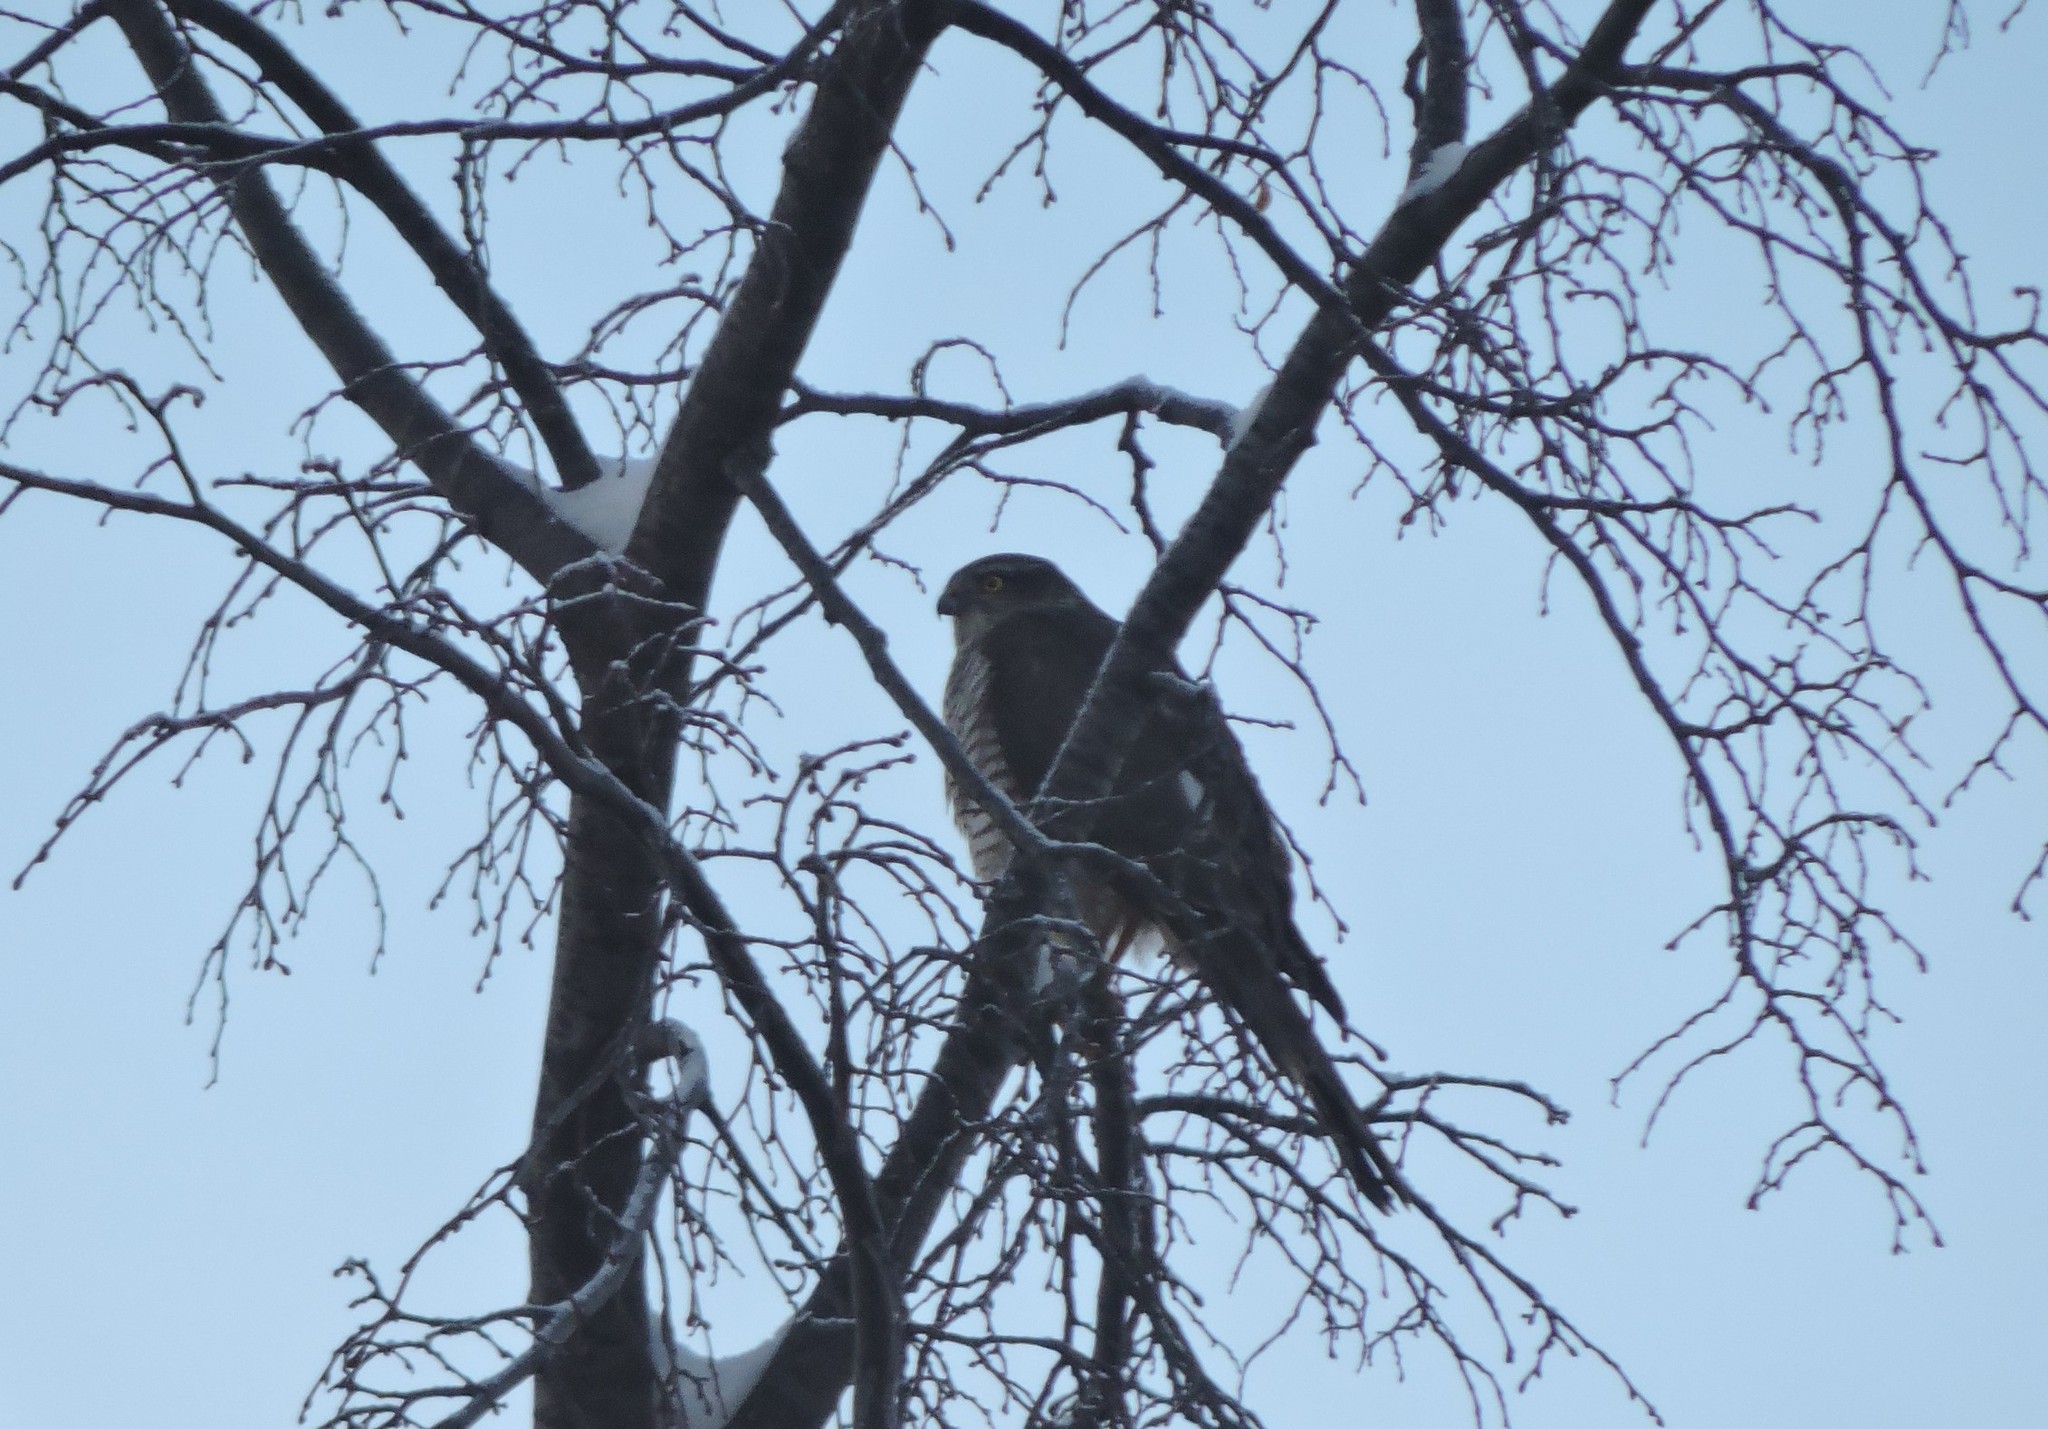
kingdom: Animalia
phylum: Chordata
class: Aves
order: Accipitriformes
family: Accipitridae
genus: Accipiter
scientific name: Accipiter nisus
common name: Eurasian sparrowhawk
